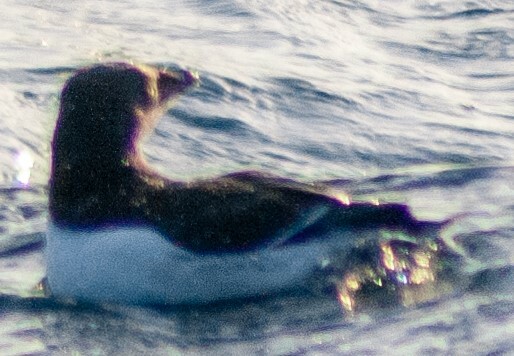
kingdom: Animalia
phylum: Chordata
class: Aves
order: Charadriiformes
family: Alcidae
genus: Alca
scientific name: Alca torda
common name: Razorbill
